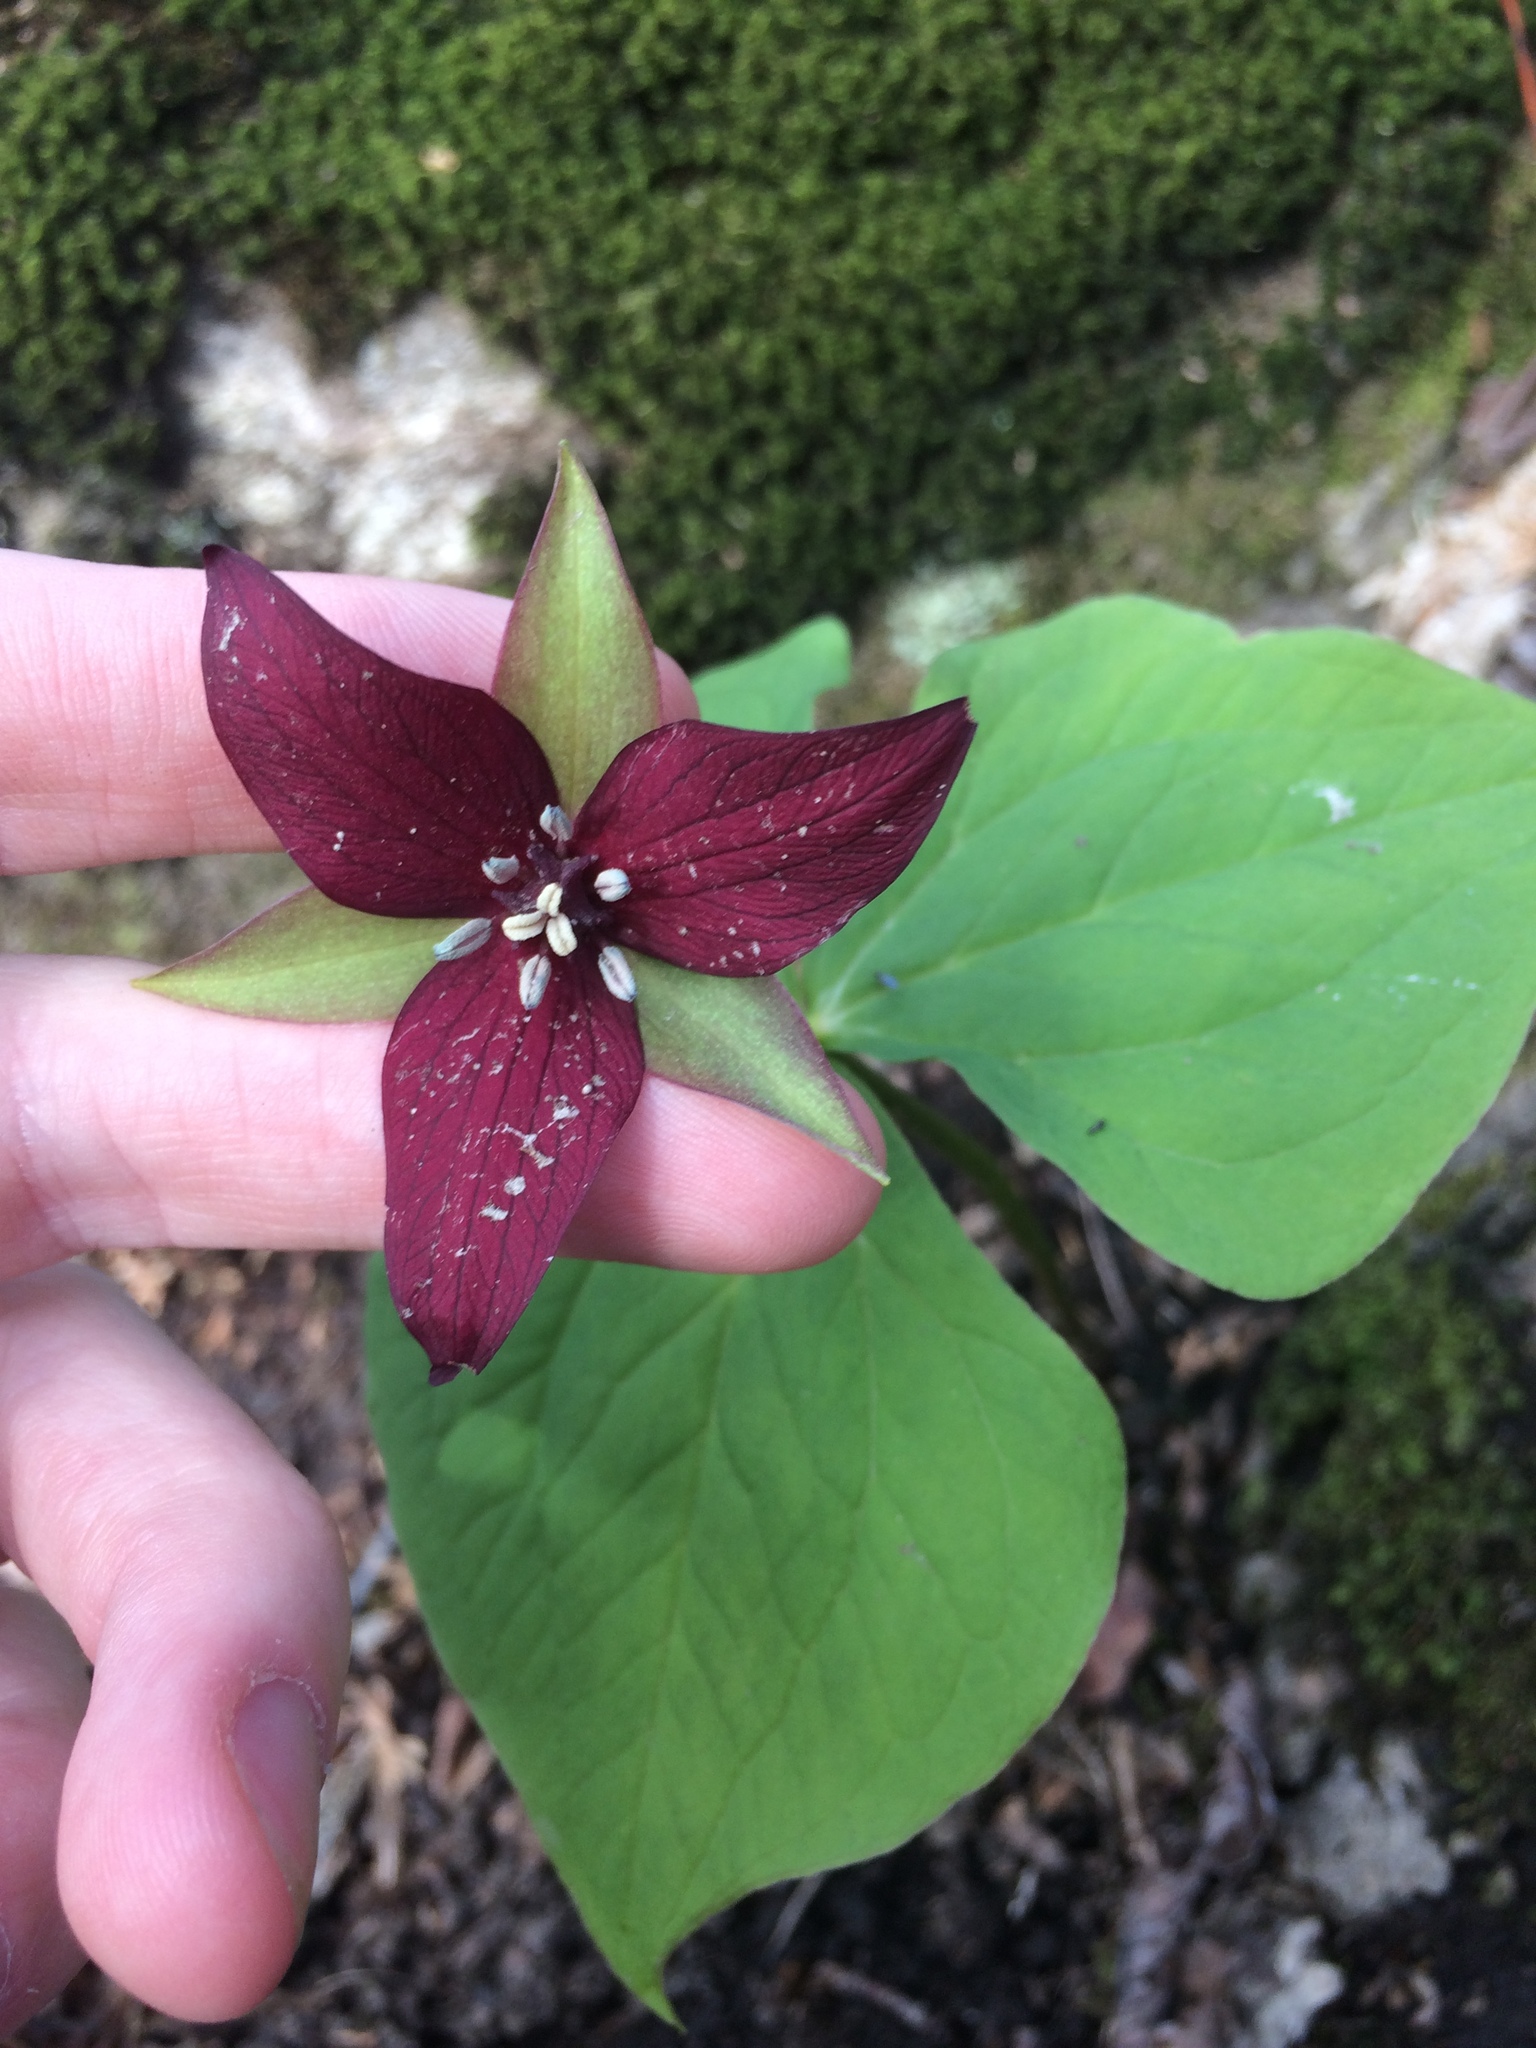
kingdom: Plantae
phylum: Tracheophyta
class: Liliopsida
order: Liliales
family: Melanthiaceae
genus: Trillium
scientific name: Trillium erectum
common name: Purple trillium
